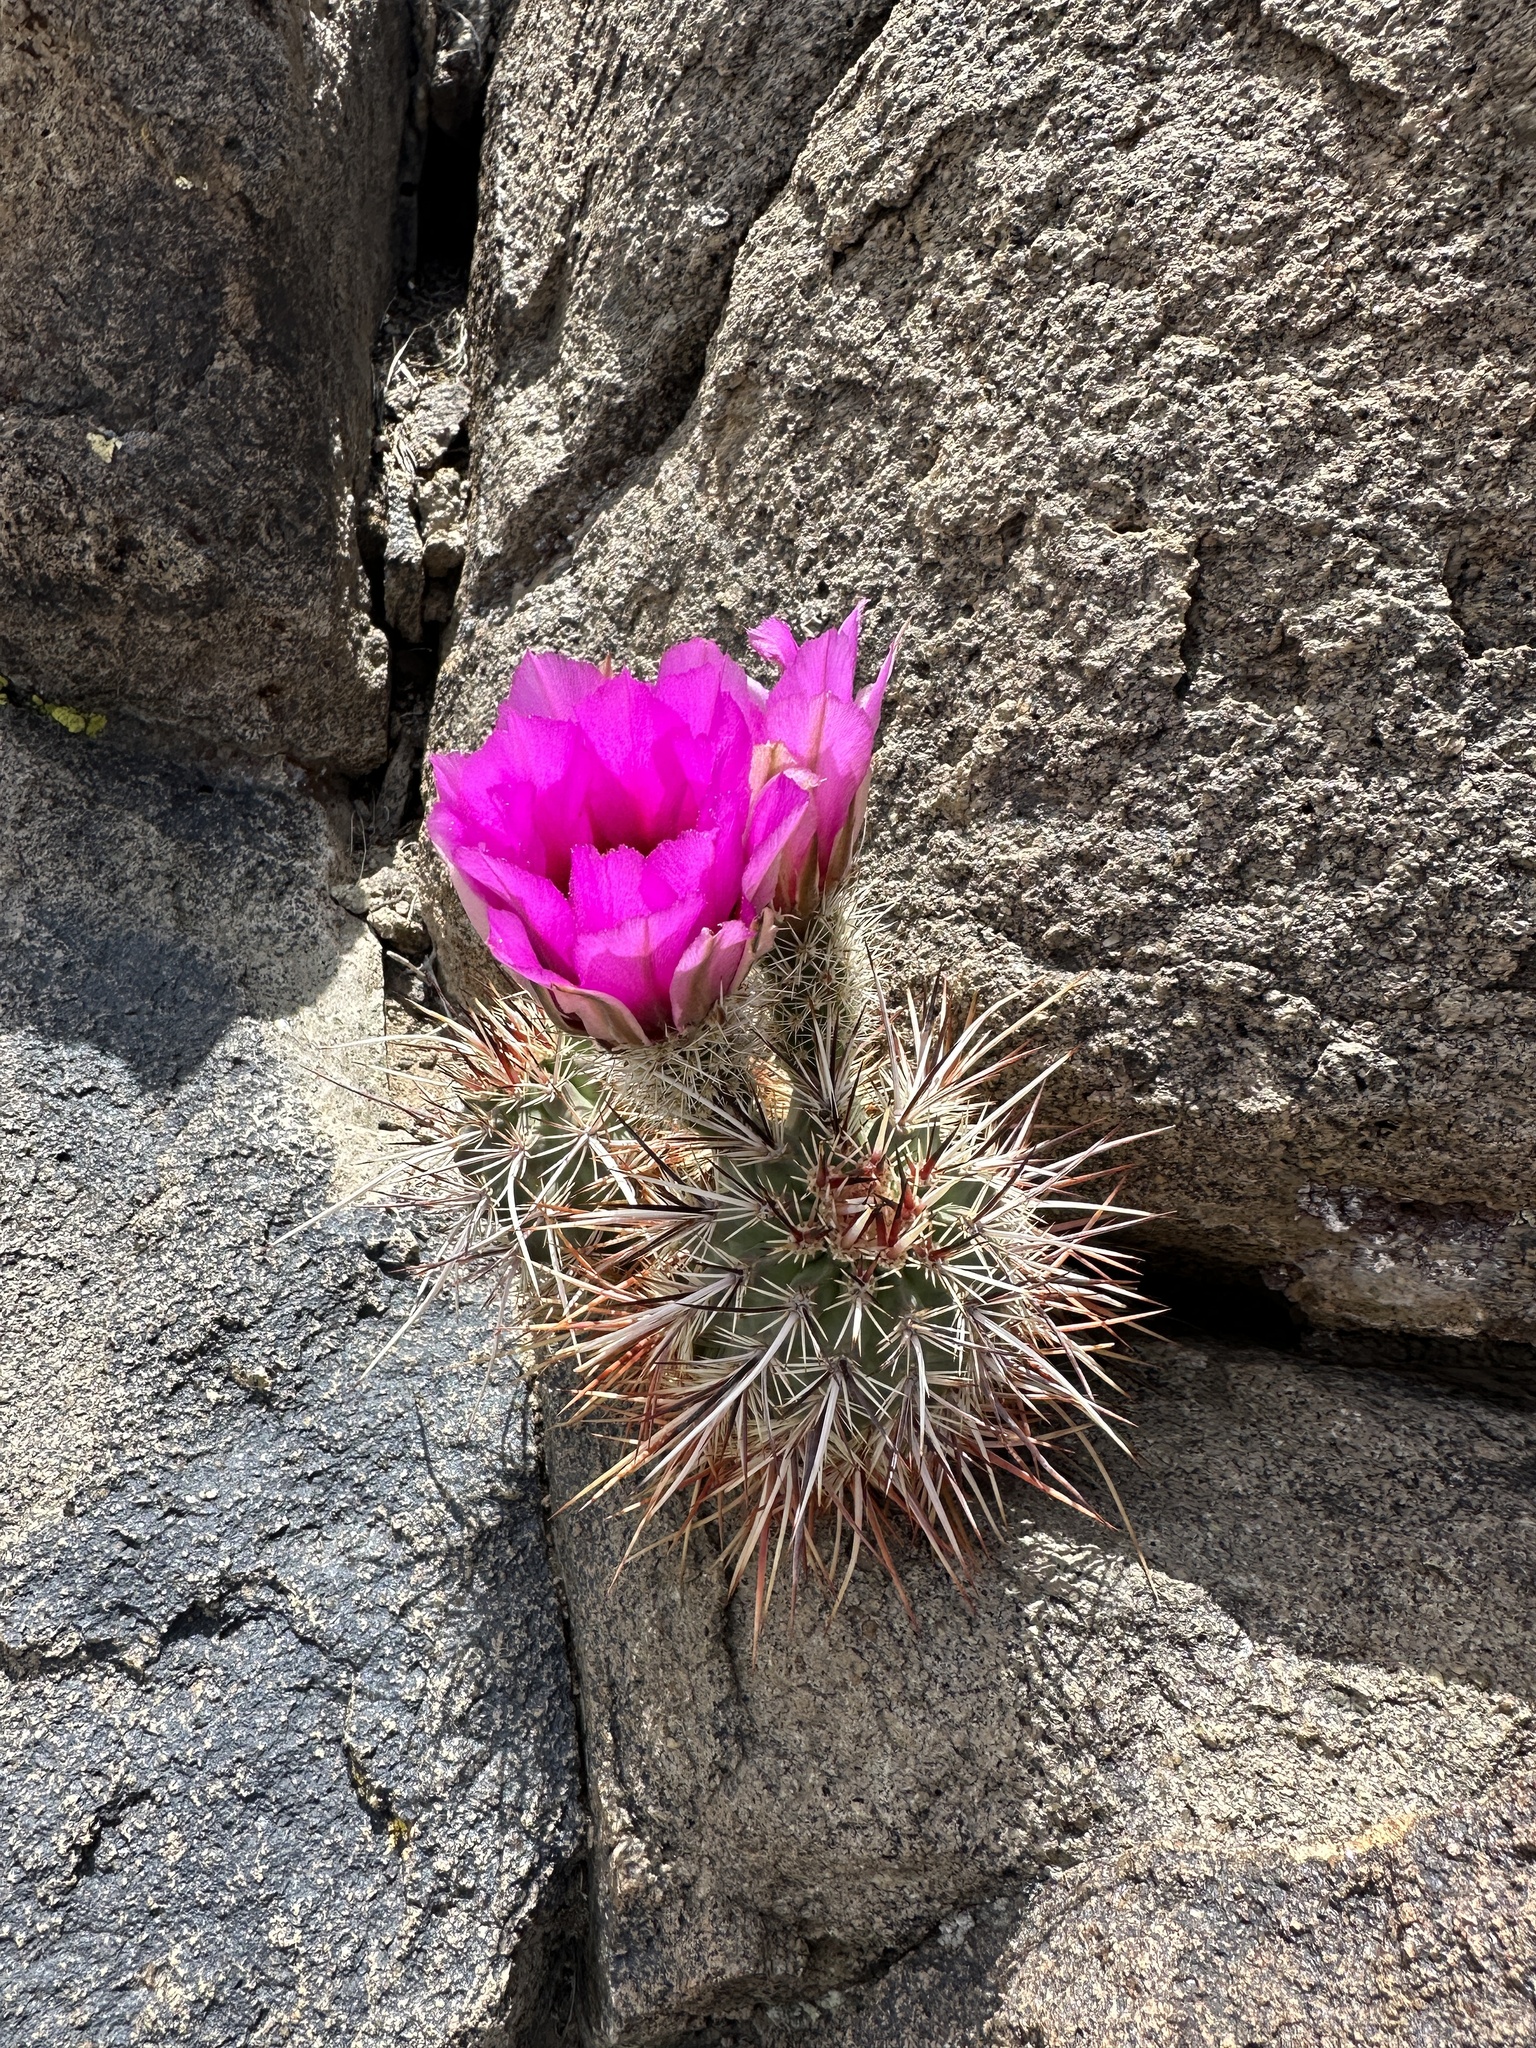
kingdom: Plantae
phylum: Tracheophyta
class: Magnoliopsida
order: Caryophyllales
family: Cactaceae
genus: Echinocereus
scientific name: Echinocereus engelmannii
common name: Engelmann's hedgehog cactus
